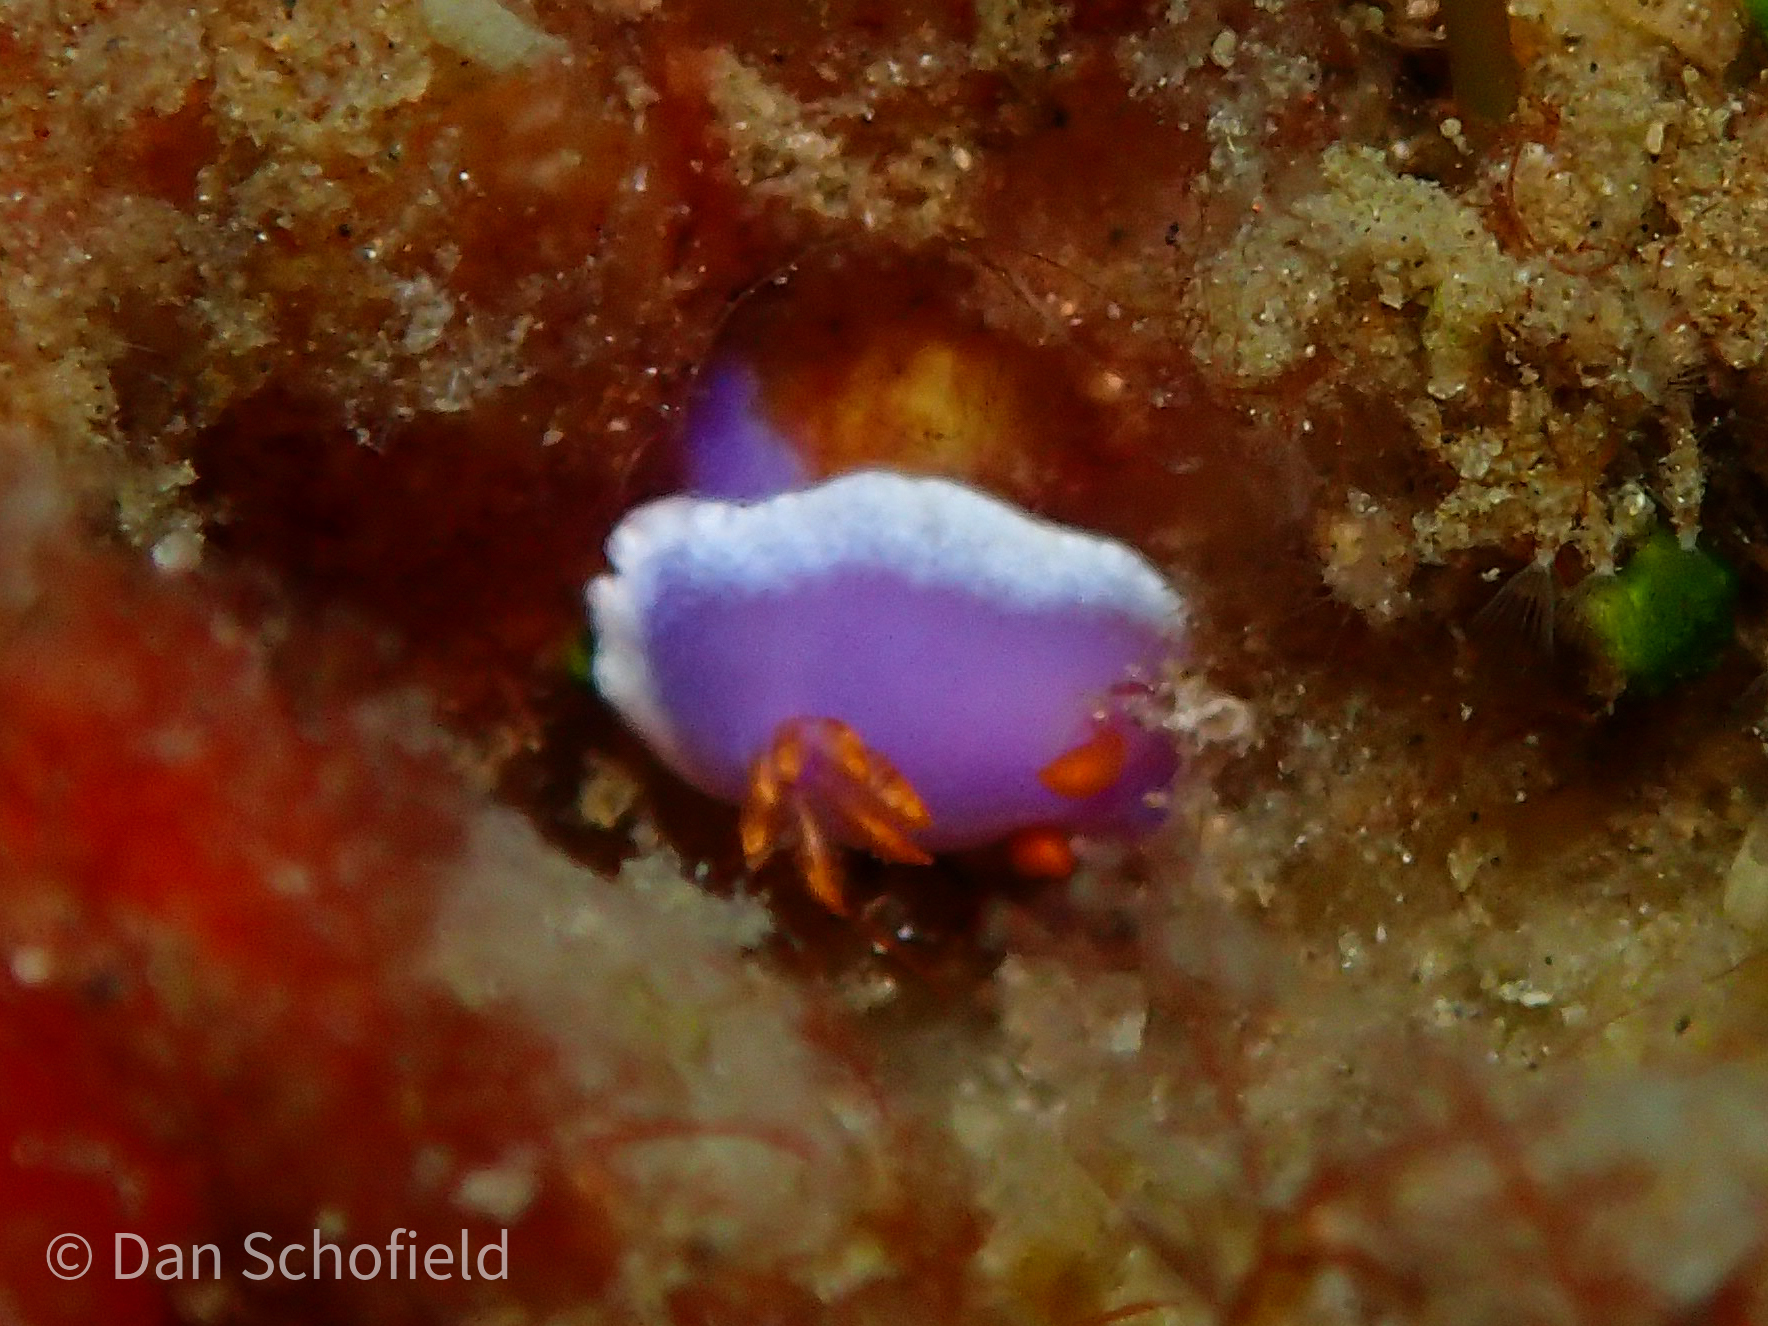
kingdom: Animalia
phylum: Mollusca
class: Gastropoda
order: Nudibranchia
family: Chromodorididae
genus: Hypselodoris
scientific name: Hypselodoris apolegma
